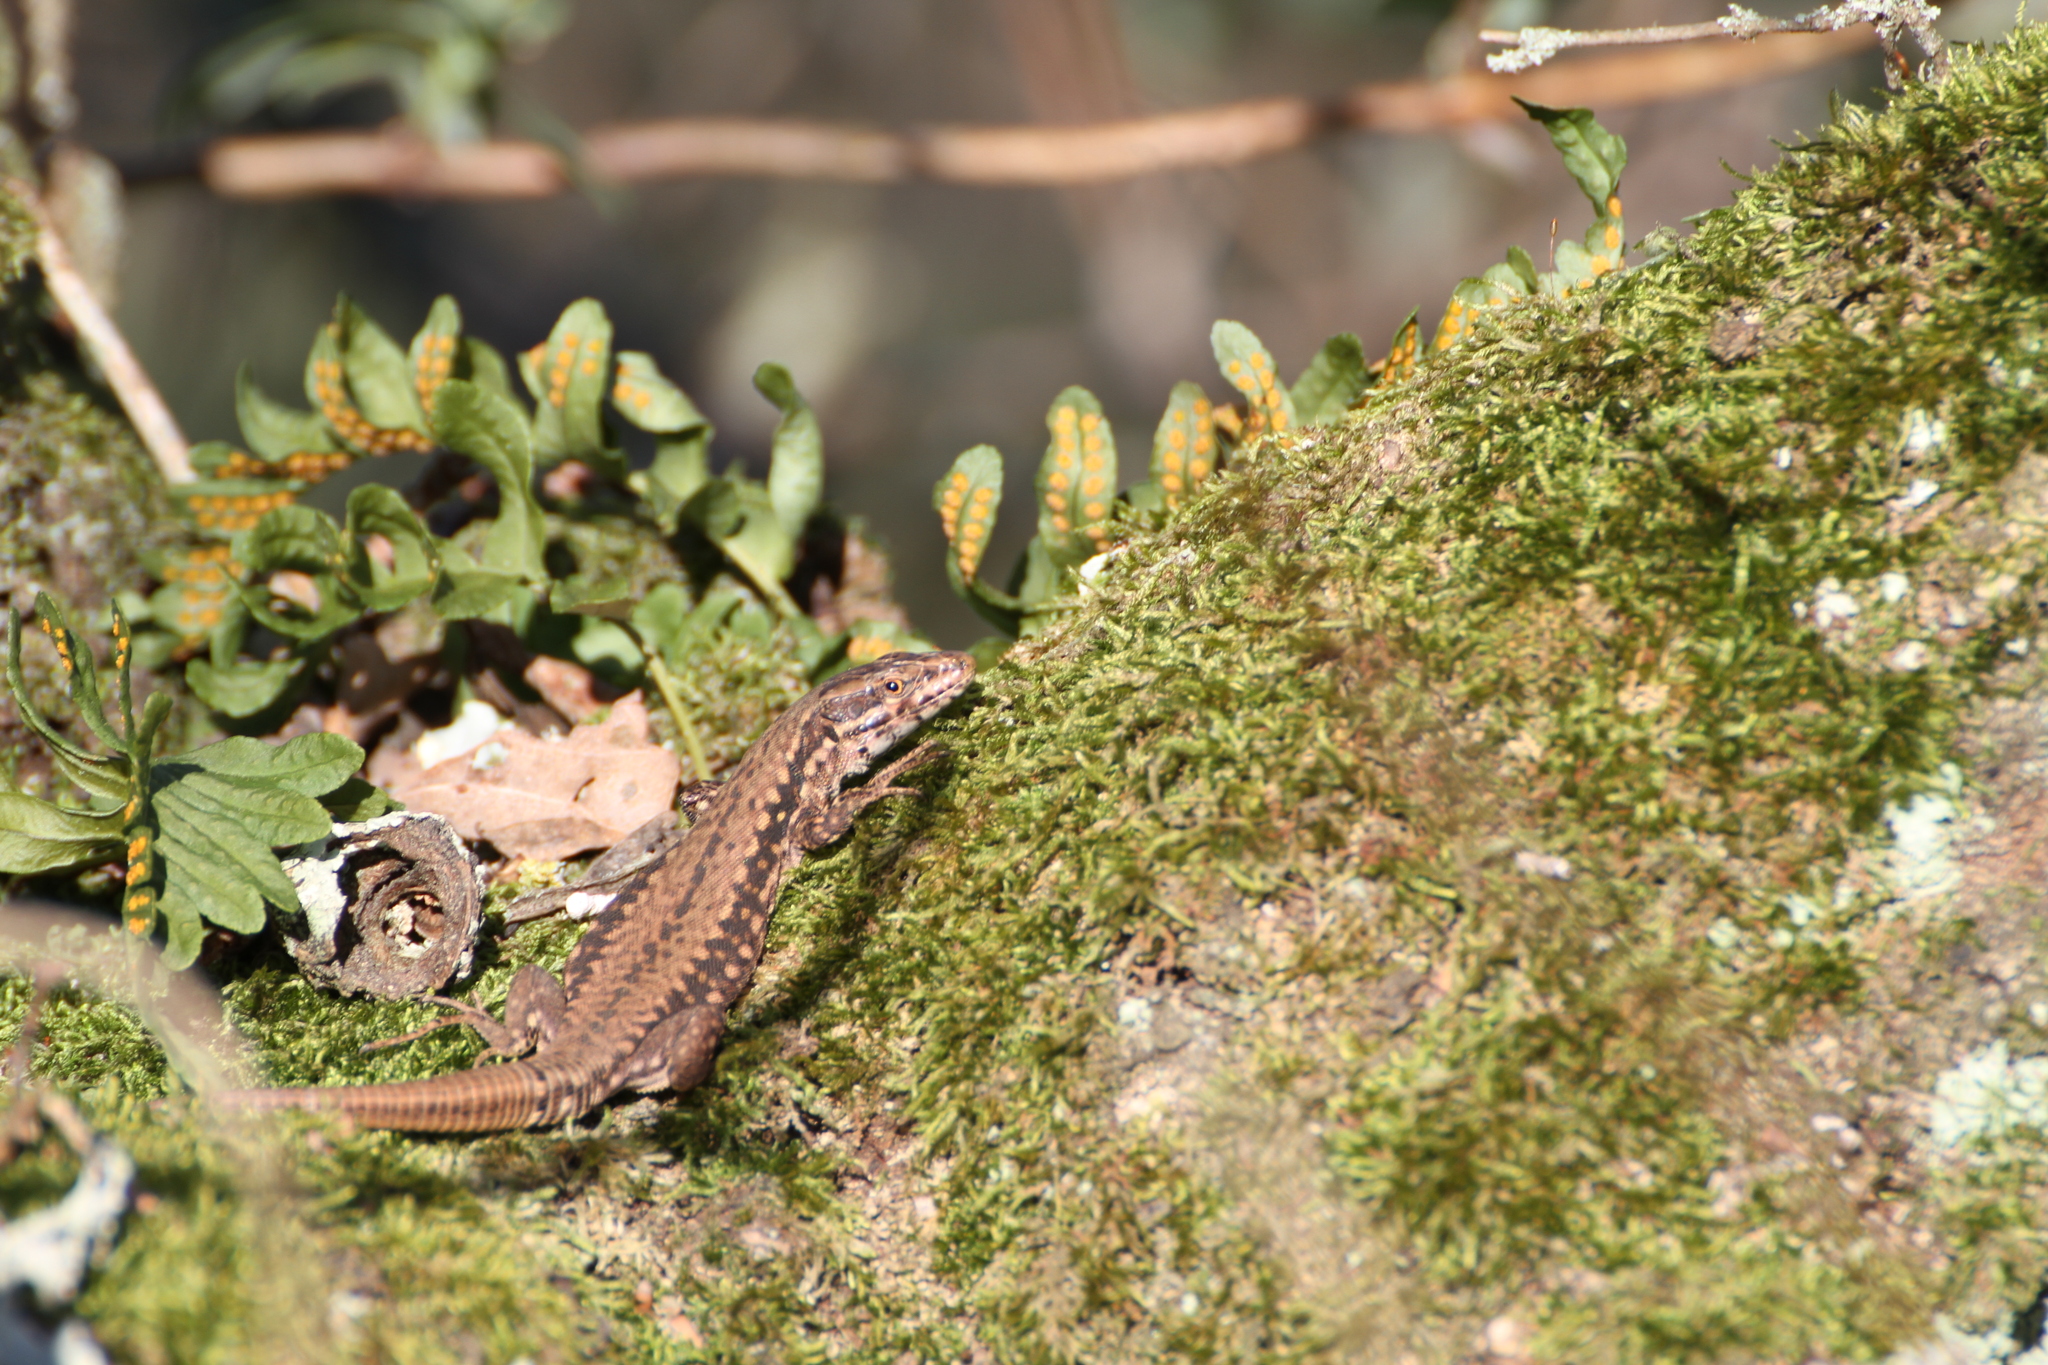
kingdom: Animalia
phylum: Chordata
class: Squamata
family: Lacertidae
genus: Podarcis
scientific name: Podarcis muralis
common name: Common wall lizard
